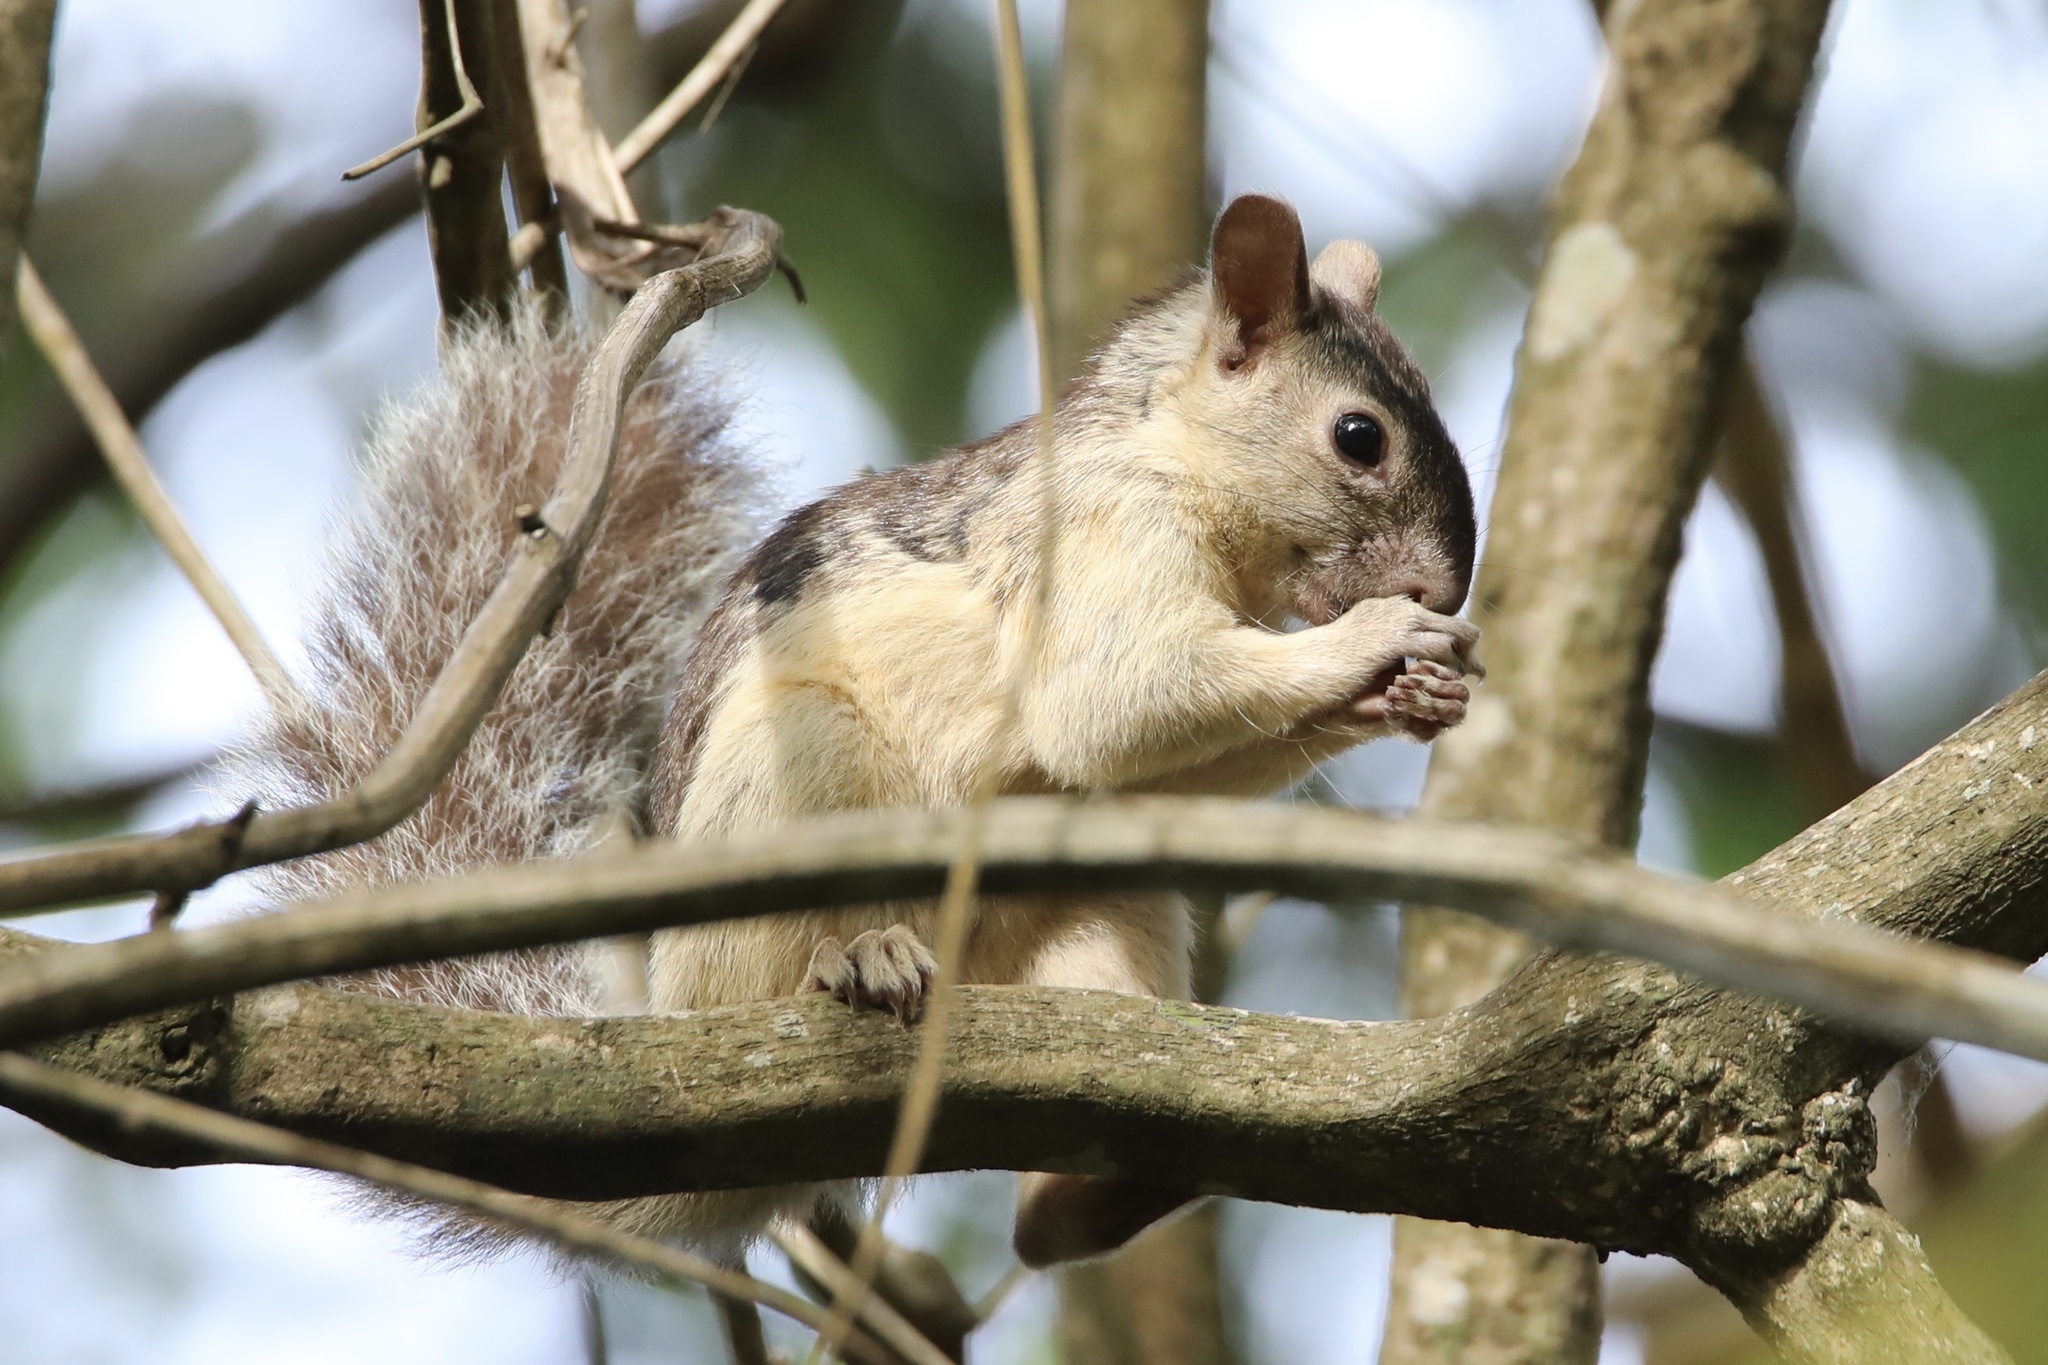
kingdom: Animalia
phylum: Chordata
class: Mammalia
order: Rodentia
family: Sciuridae
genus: Sciurus
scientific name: Sciurus variegatoides
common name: Variegated squirrel
